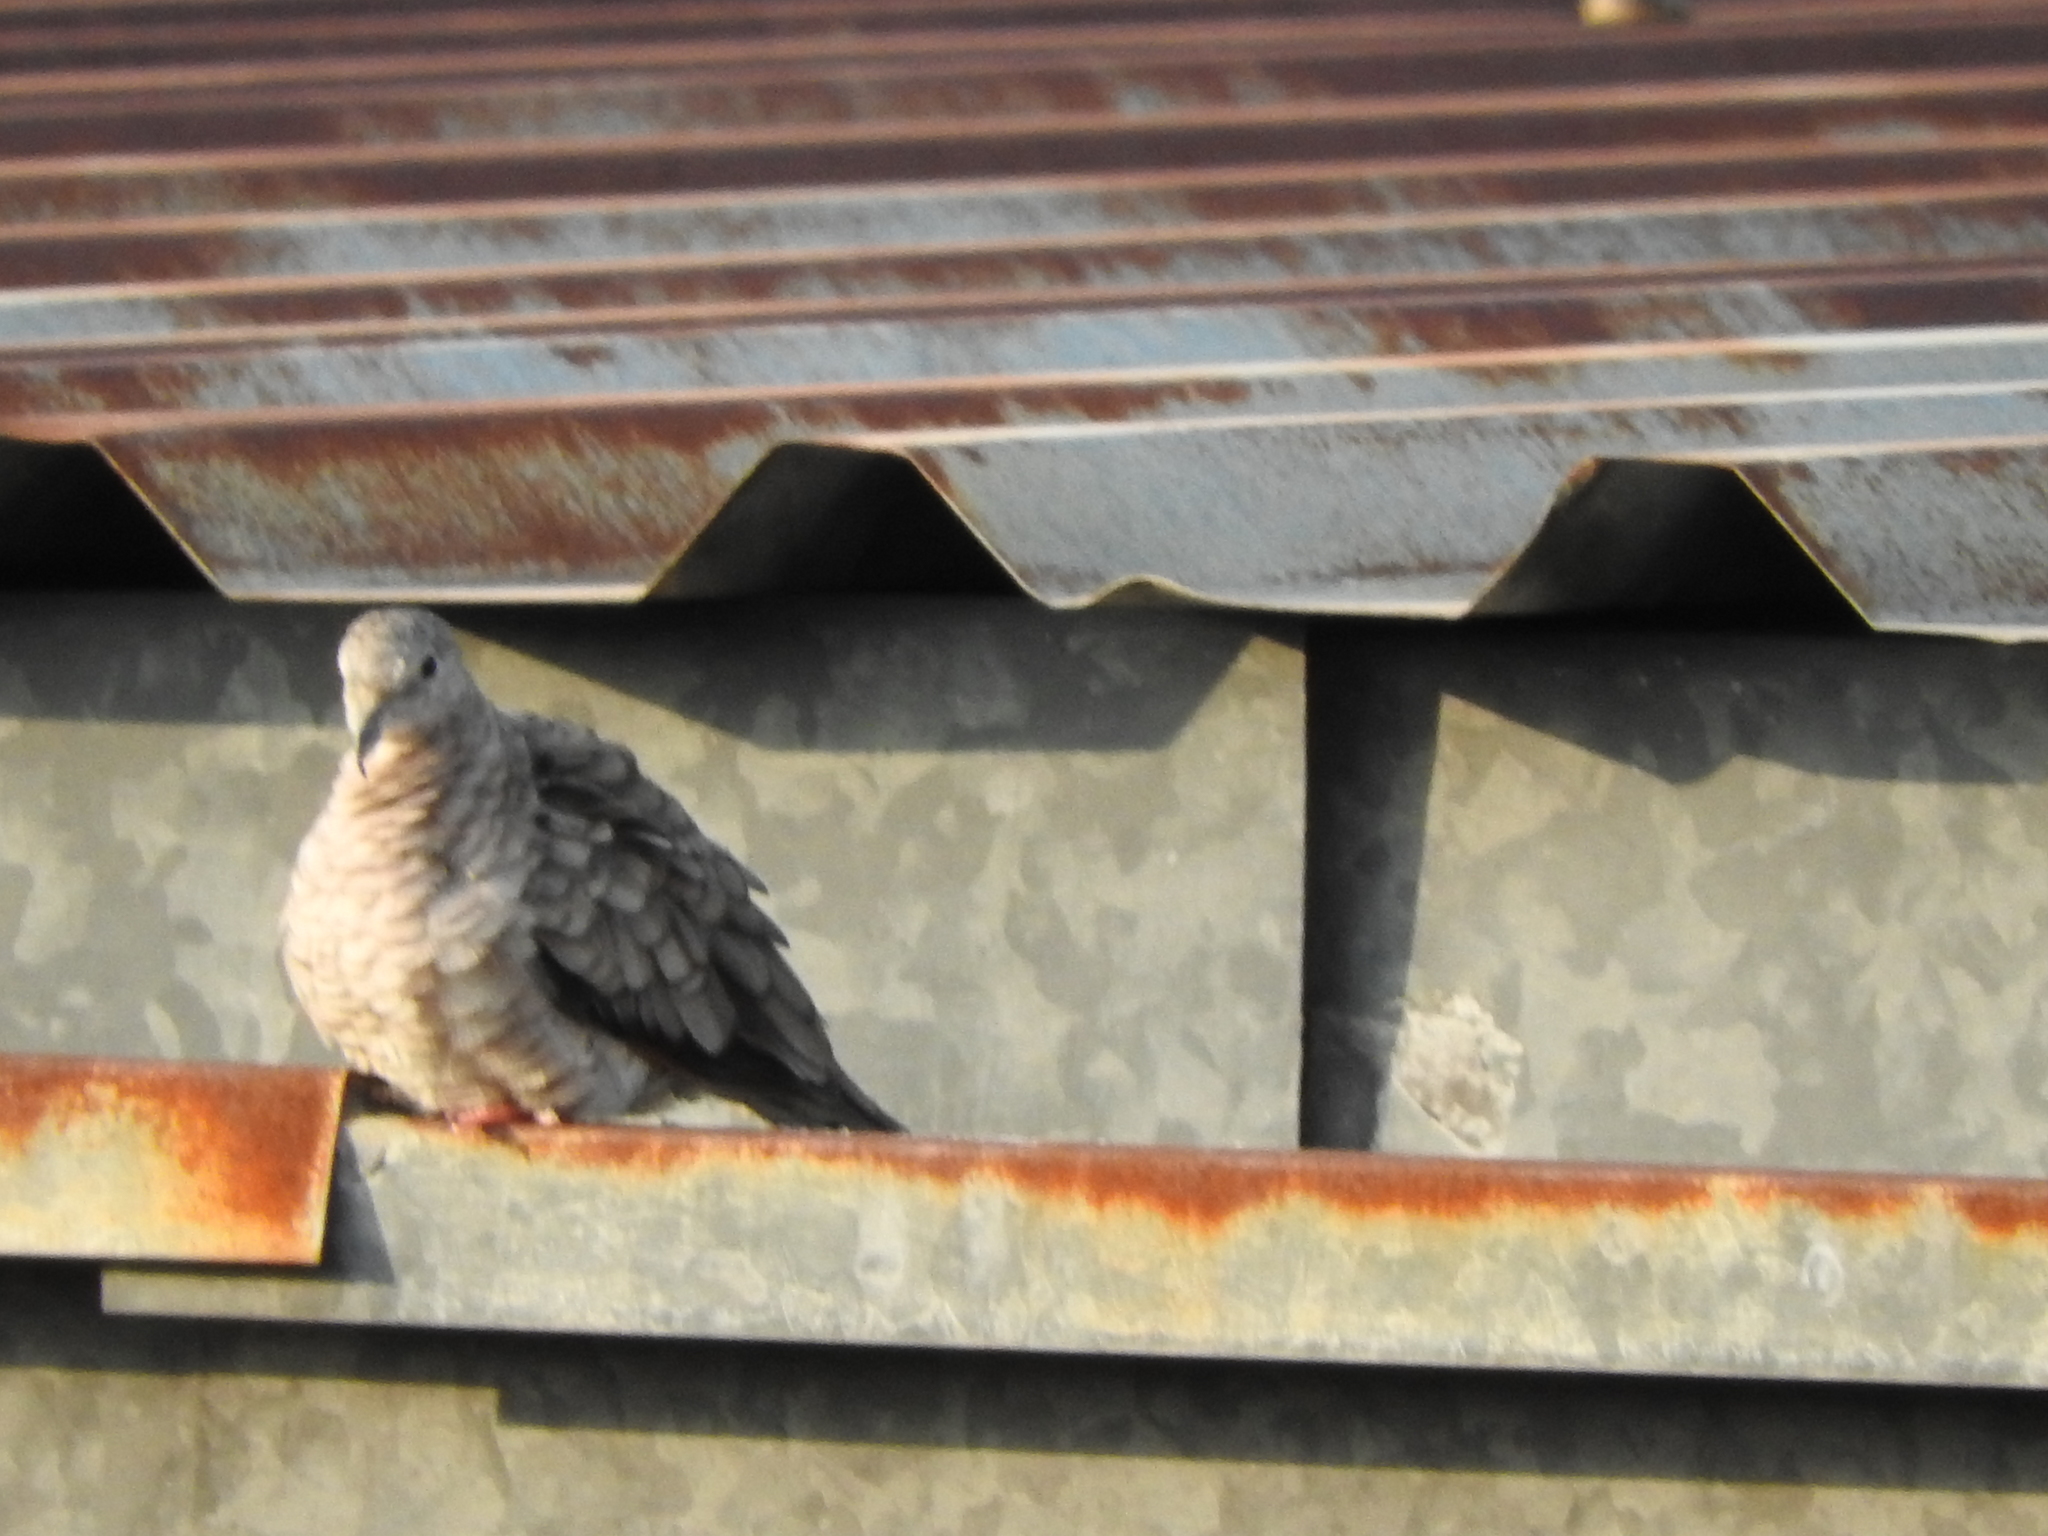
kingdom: Animalia
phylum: Chordata
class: Aves
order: Columbiformes
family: Columbidae
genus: Columbina
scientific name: Columbina inca
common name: Inca dove
